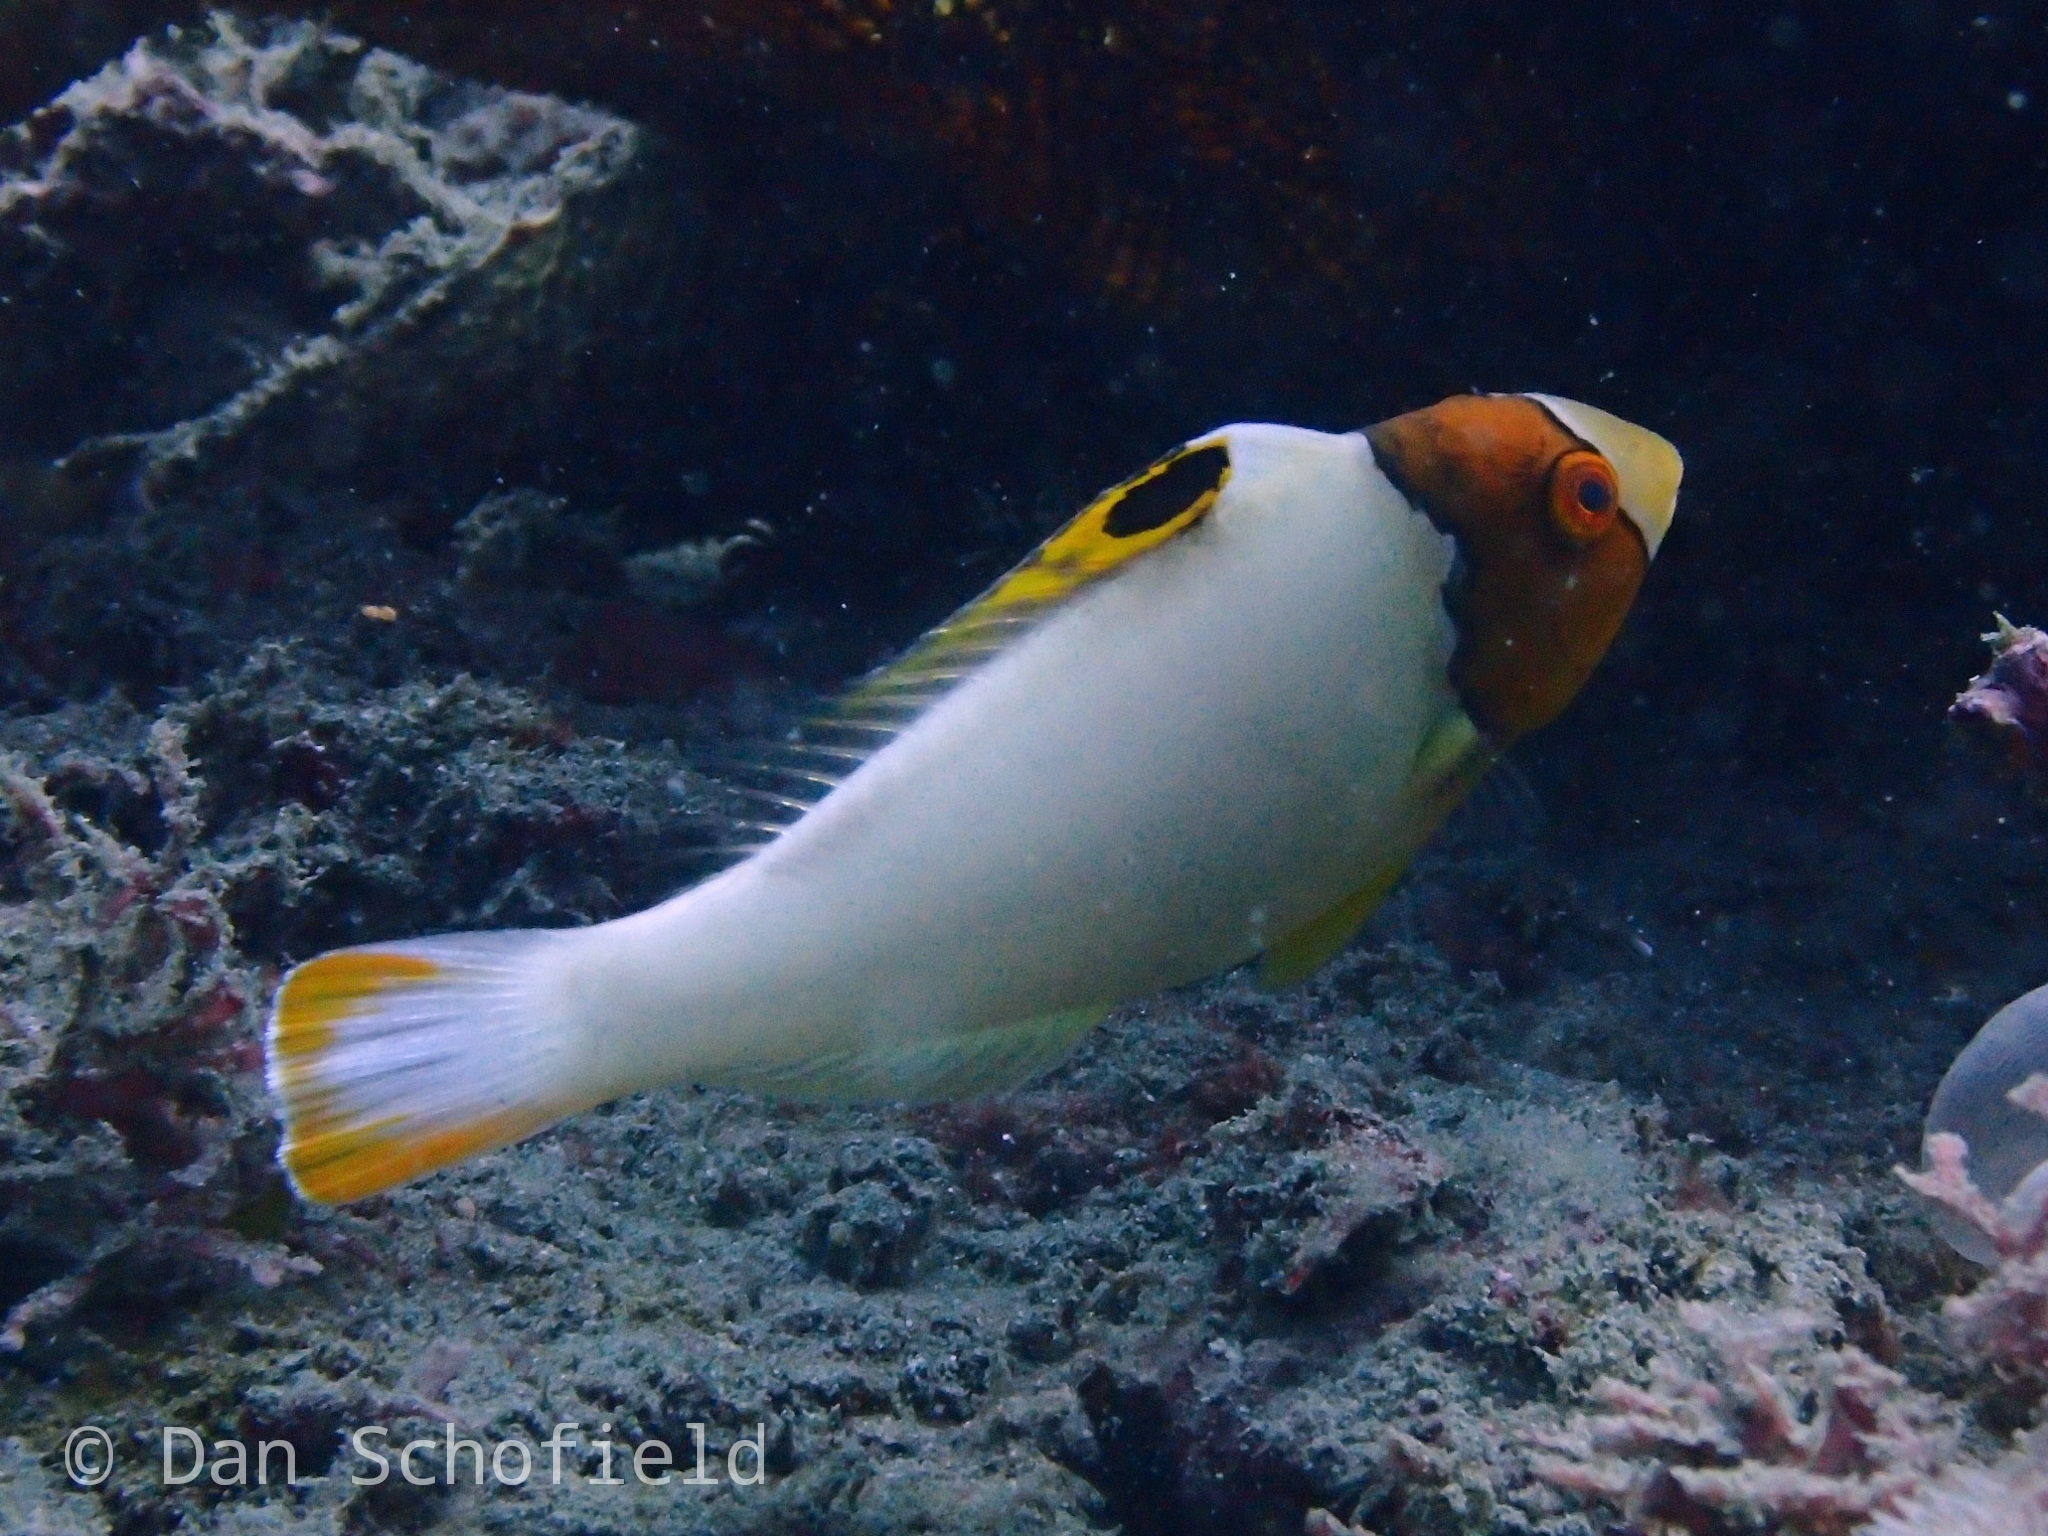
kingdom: Animalia
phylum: Chordata
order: Perciformes
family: Scaridae
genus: Cetoscarus
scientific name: Cetoscarus ocellatus
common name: Bicolor parrotfish
